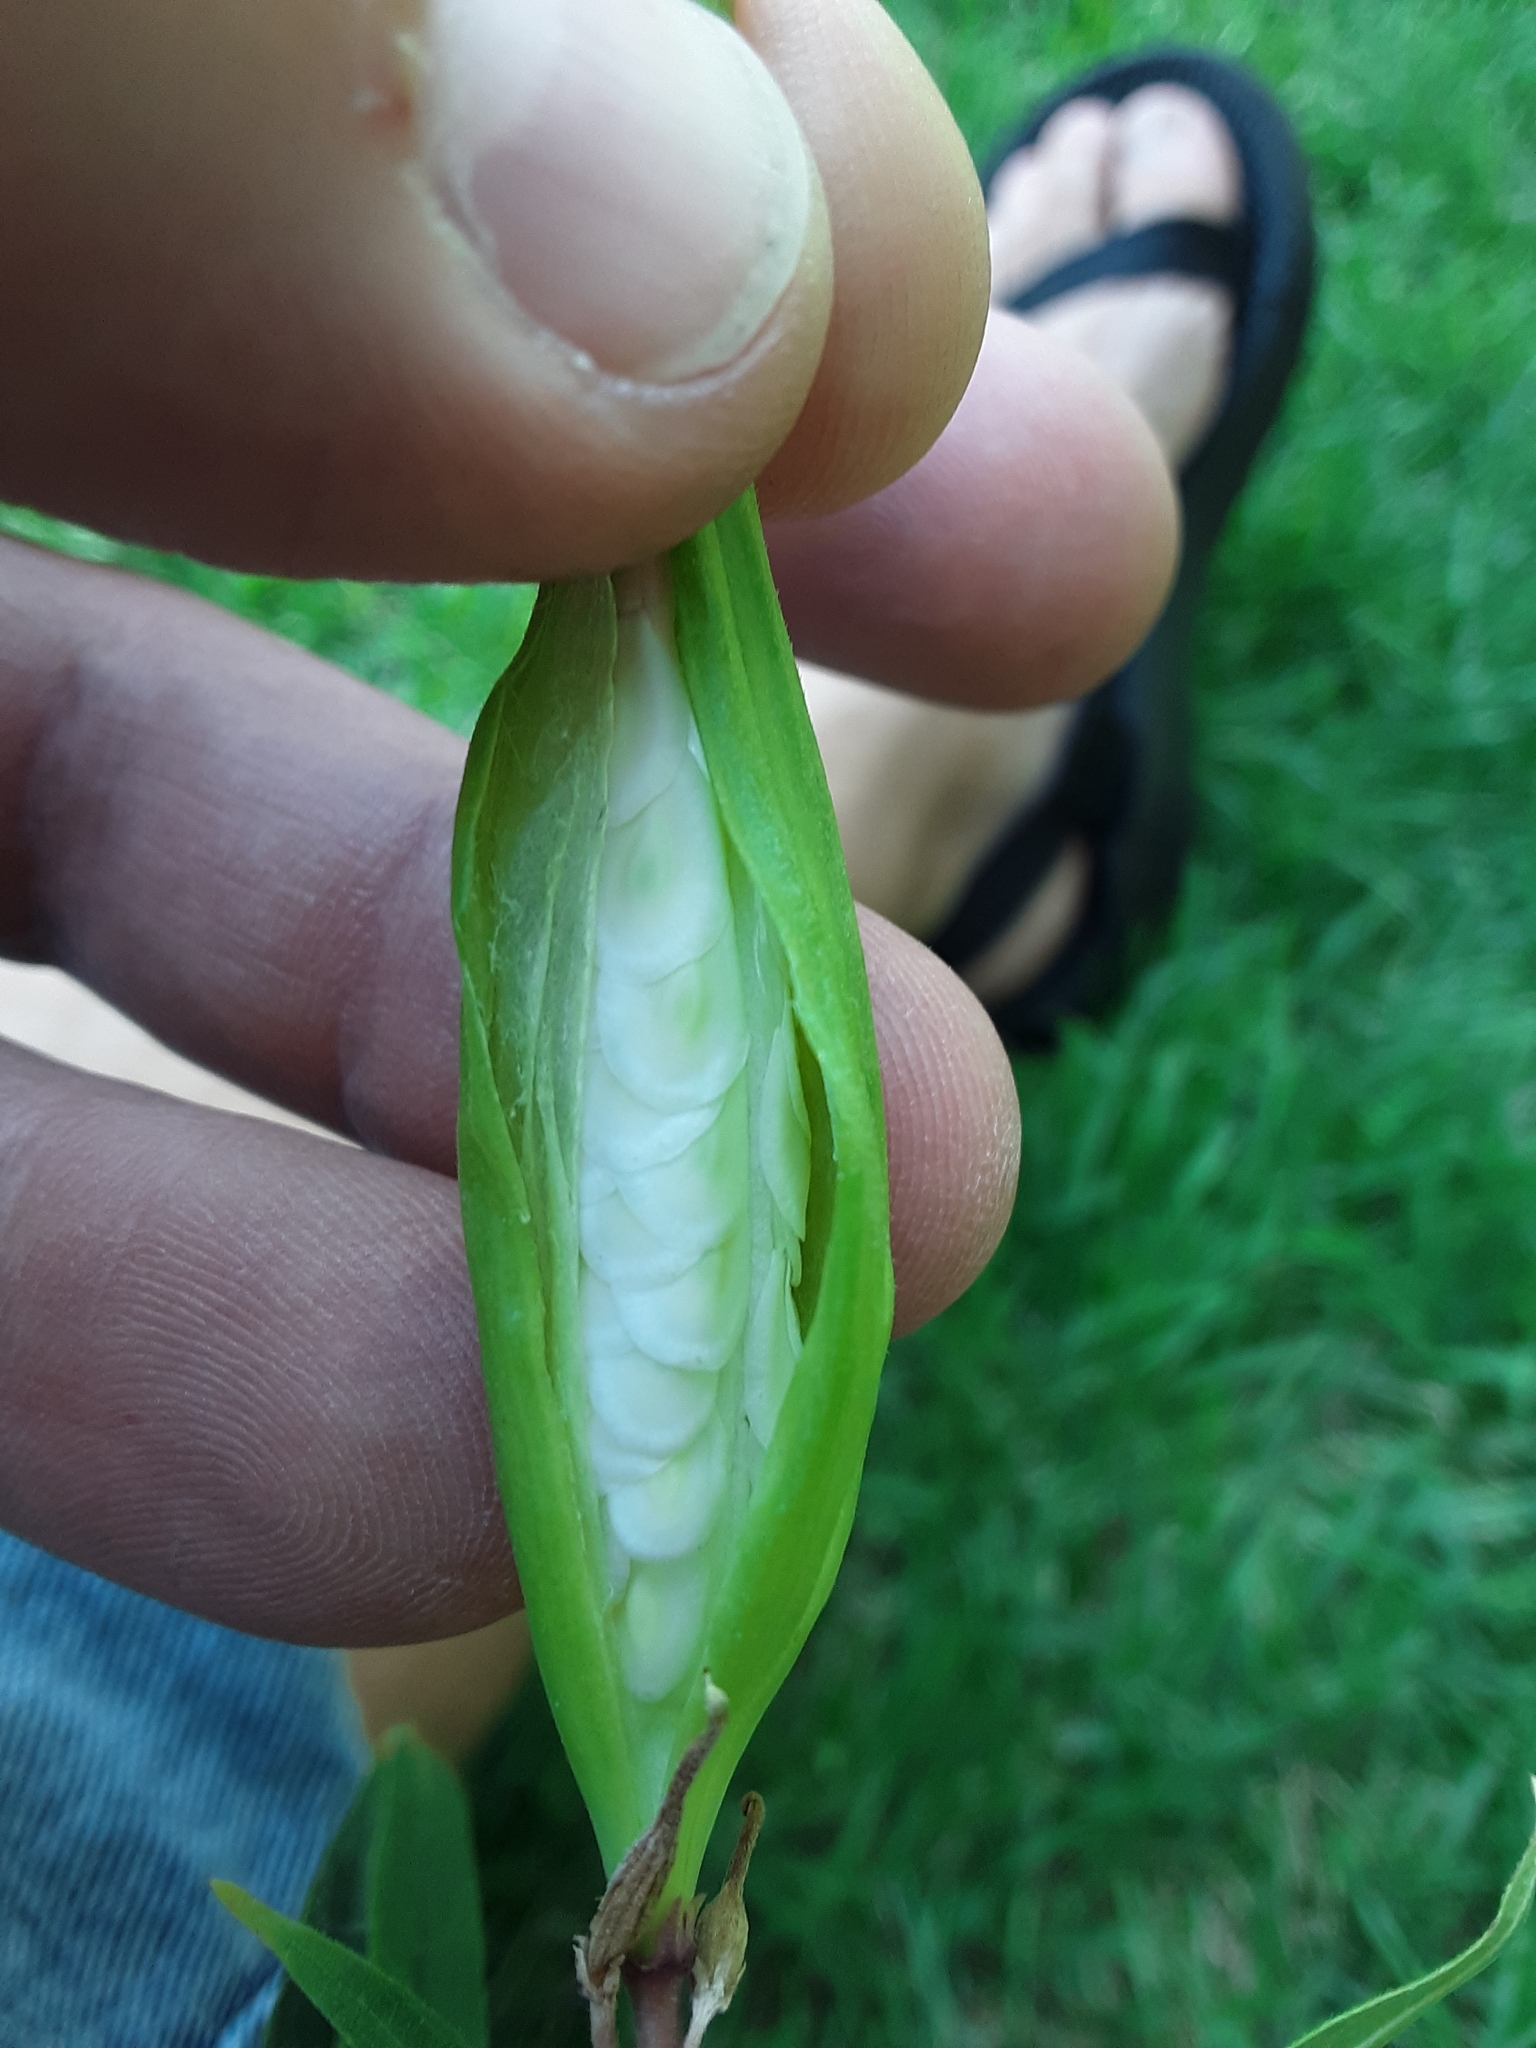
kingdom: Plantae
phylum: Tracheophyta
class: Magnoliopsida
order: Gentianales
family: Apocynaceae
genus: Asclepias
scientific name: Asclepias incarnata
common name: Swamp milkweed
